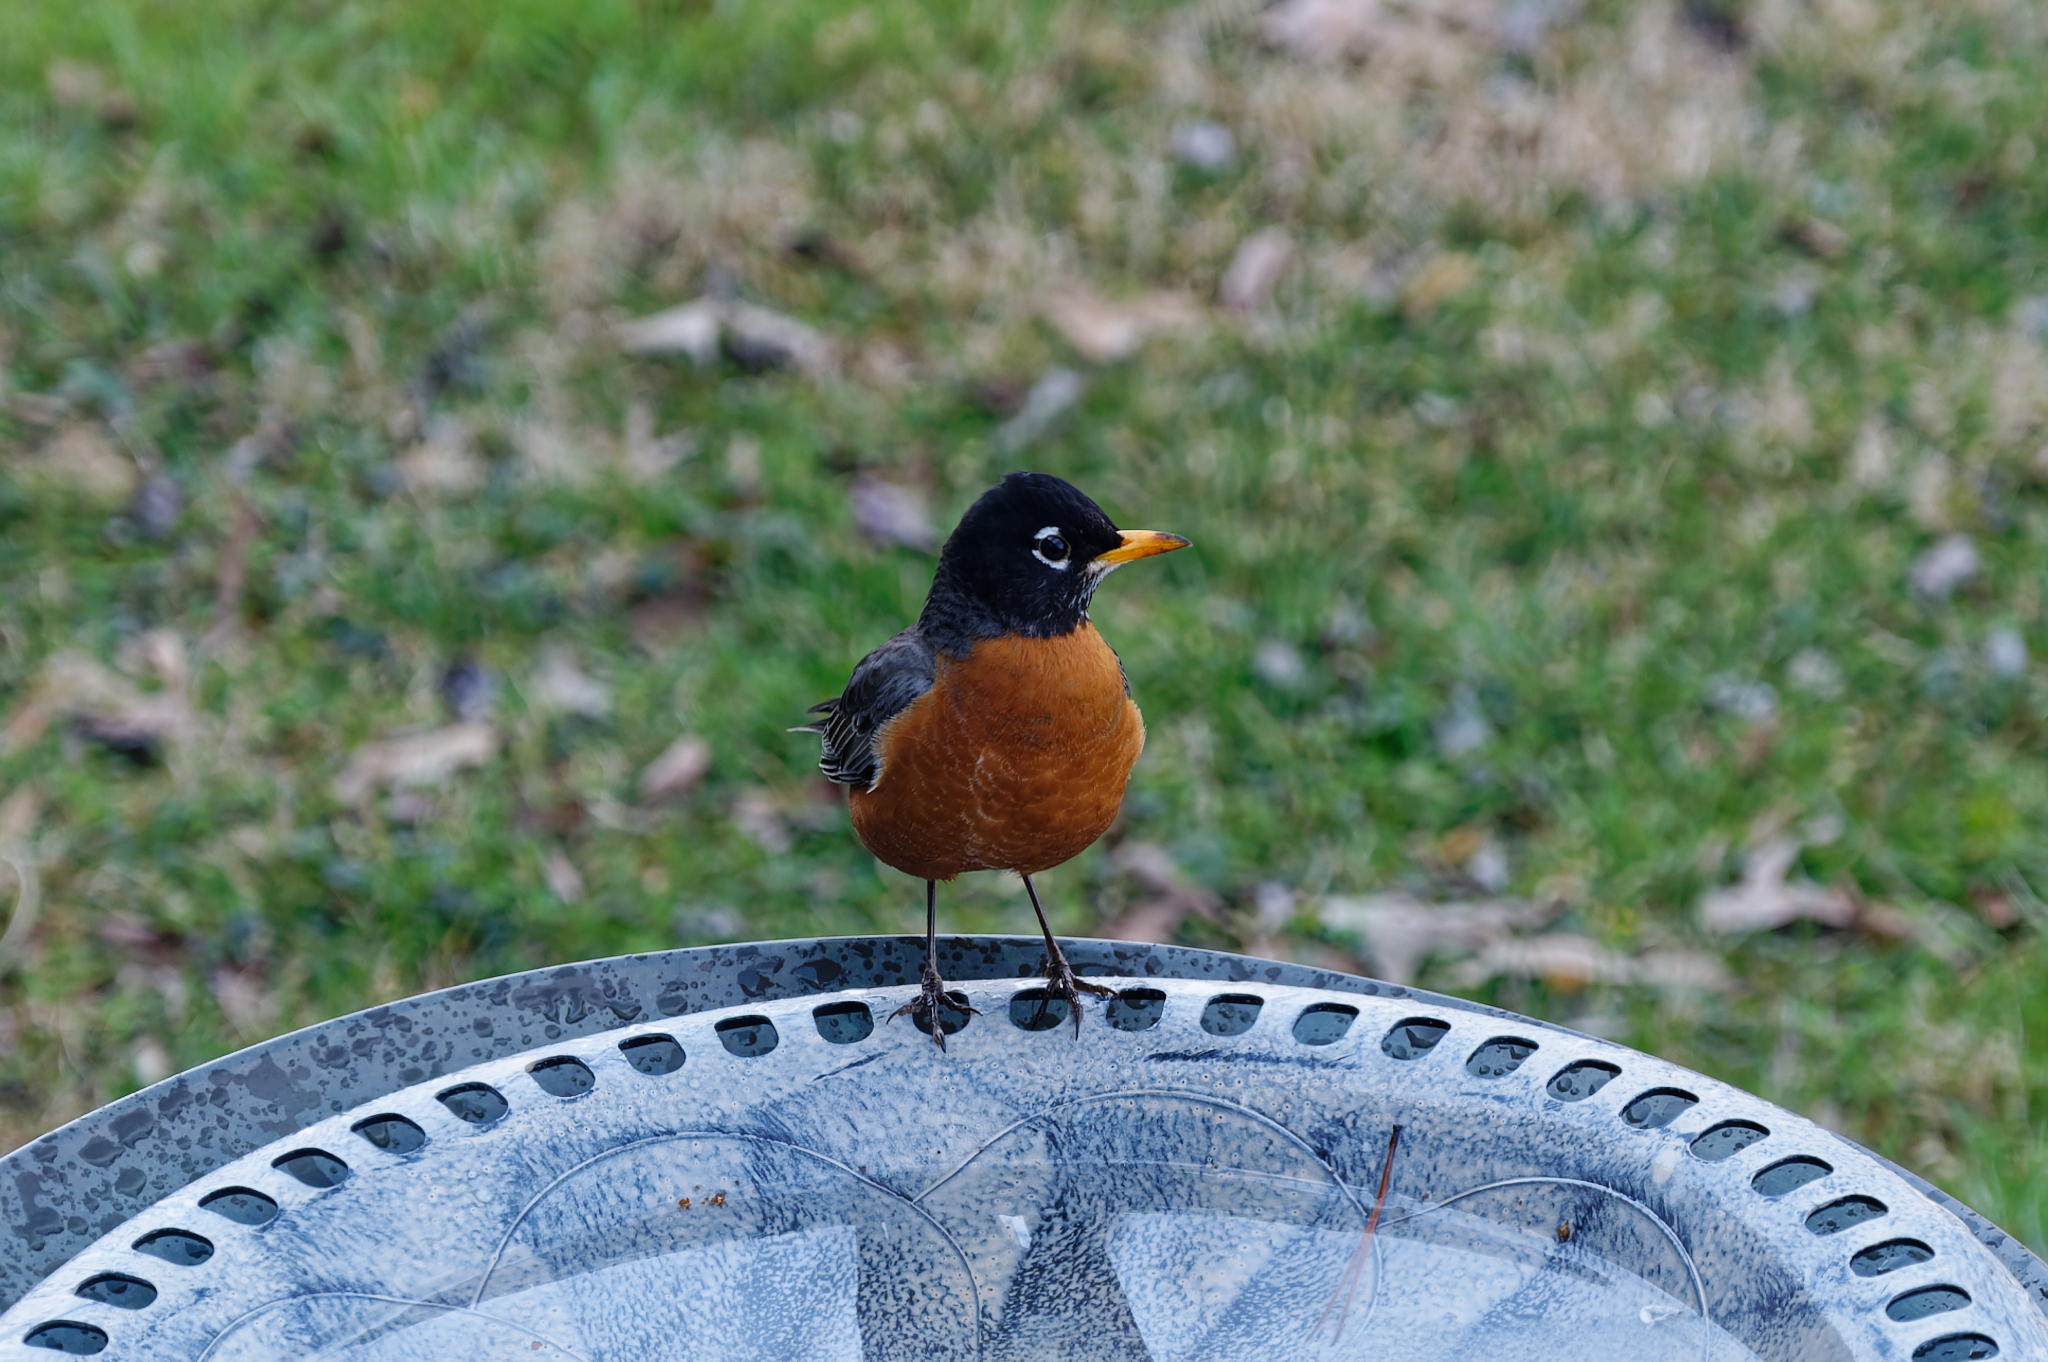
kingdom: Animalia
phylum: Chordata
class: Aves
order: Passeriformes
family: Turdidae
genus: Turdus
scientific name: Turdus migratorius
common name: American robin
